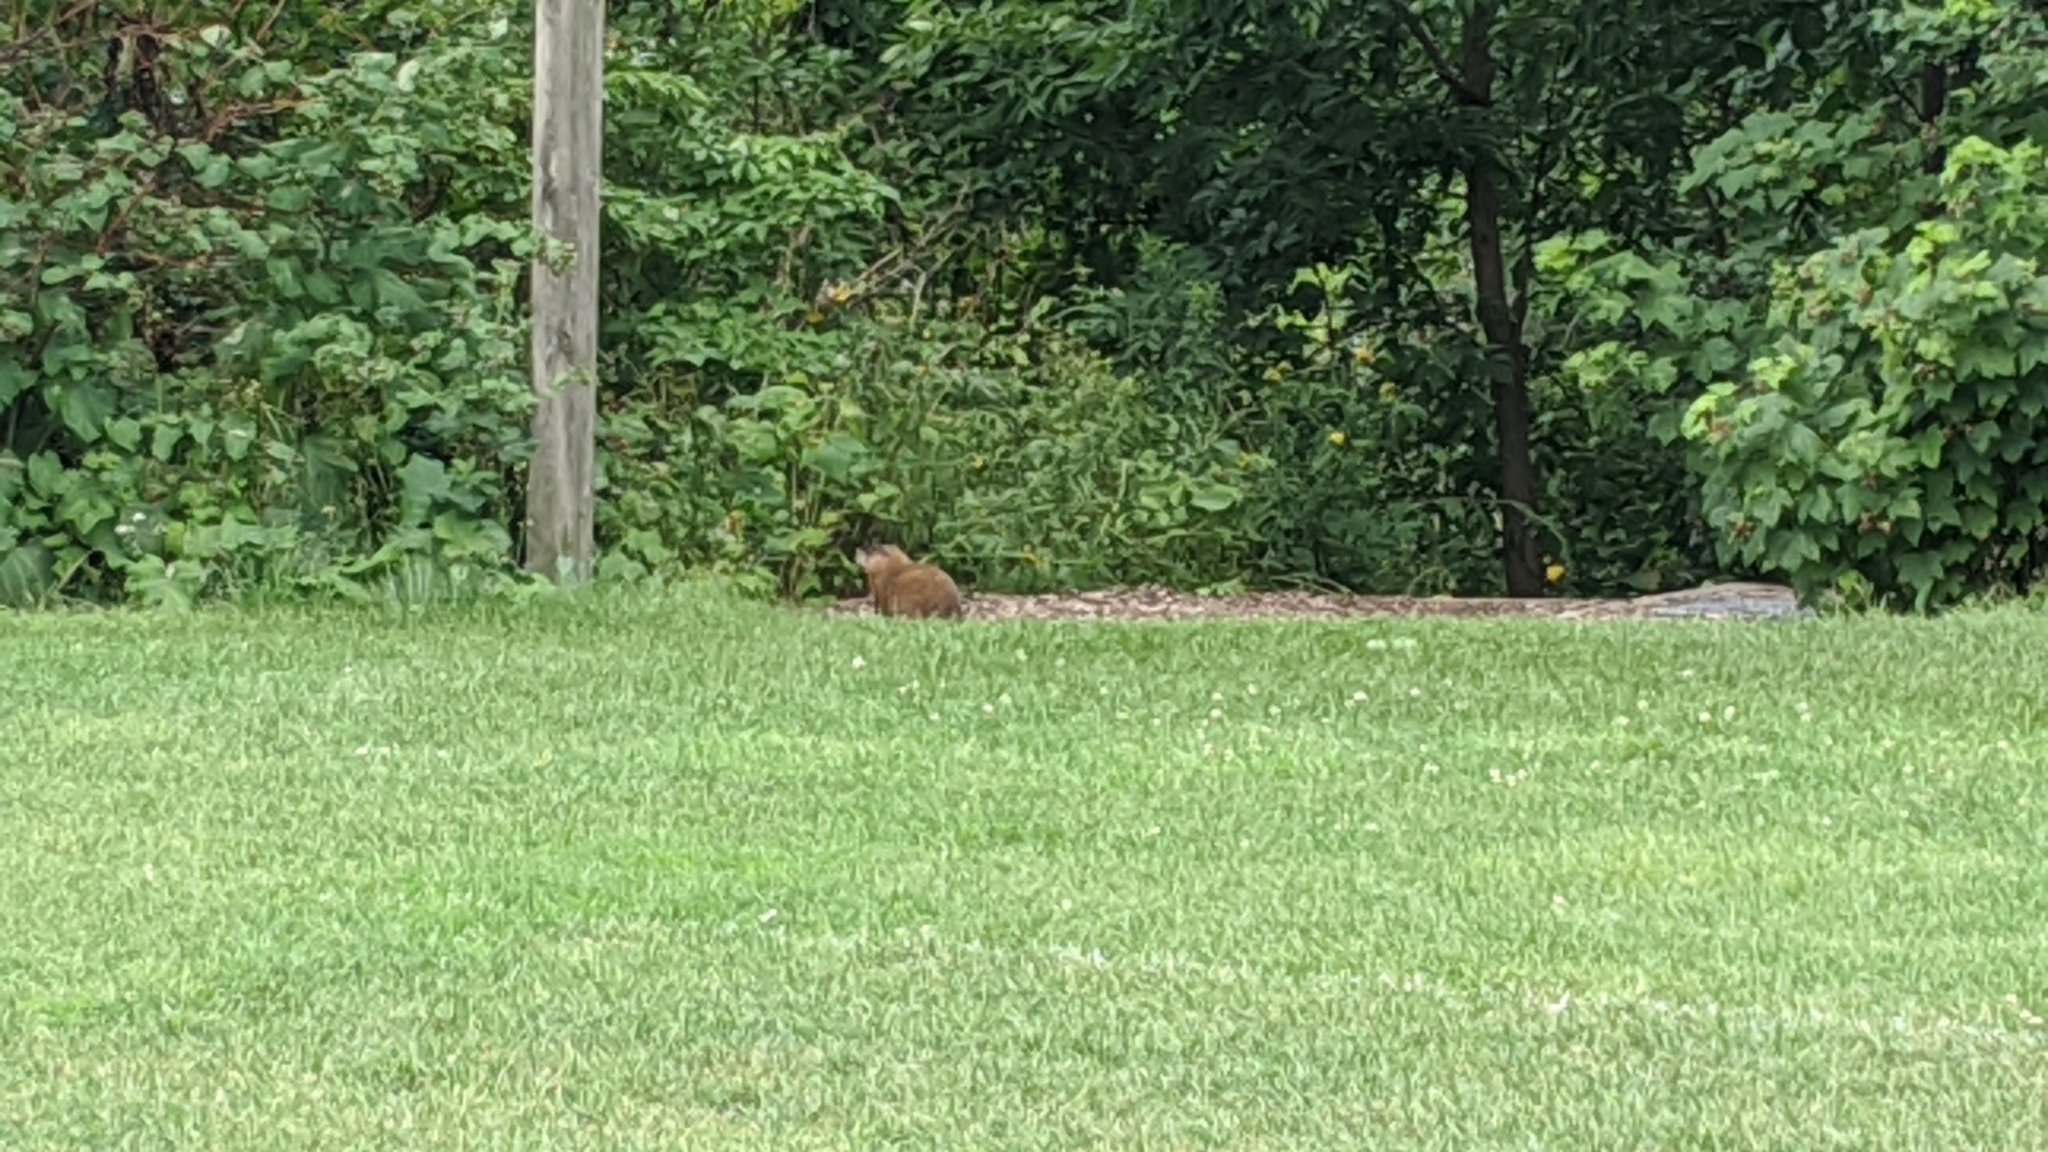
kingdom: Animalia
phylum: Chordata
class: Mammalia
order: Rodentia
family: Sciuridae
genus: Marmota
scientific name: Marmota monax
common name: Groundhog
